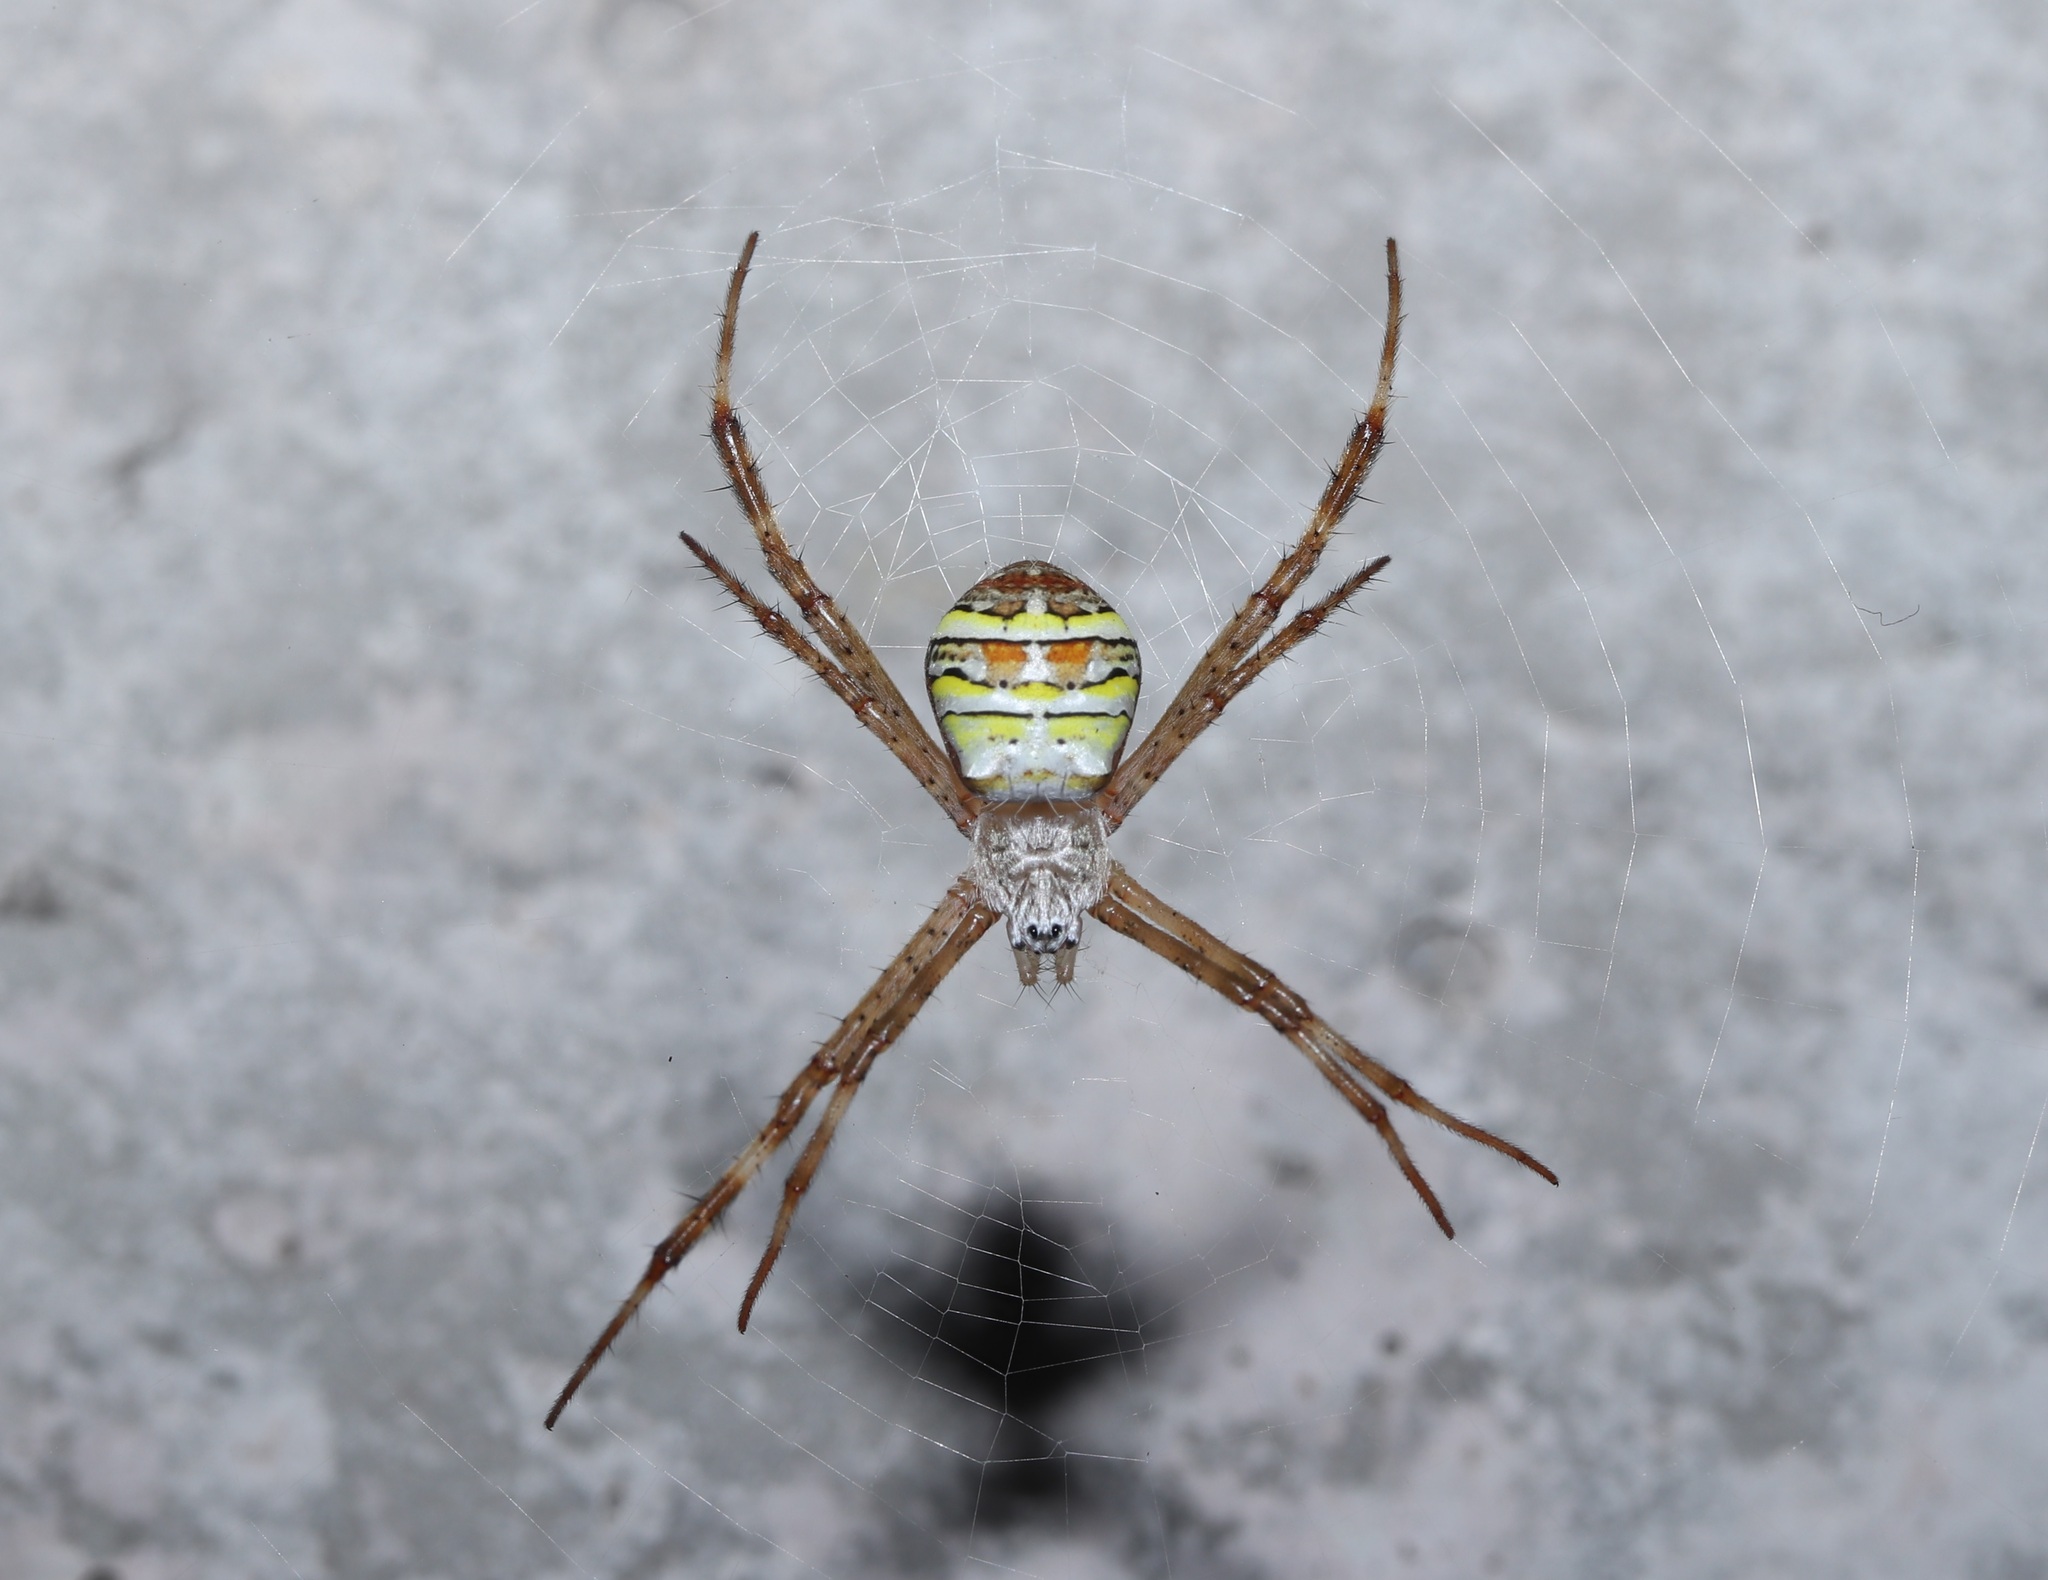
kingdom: Animalia
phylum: Arthropoda
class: Arachnida
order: Araneae
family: Araneidae
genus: Argiope
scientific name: Argiope minuta
